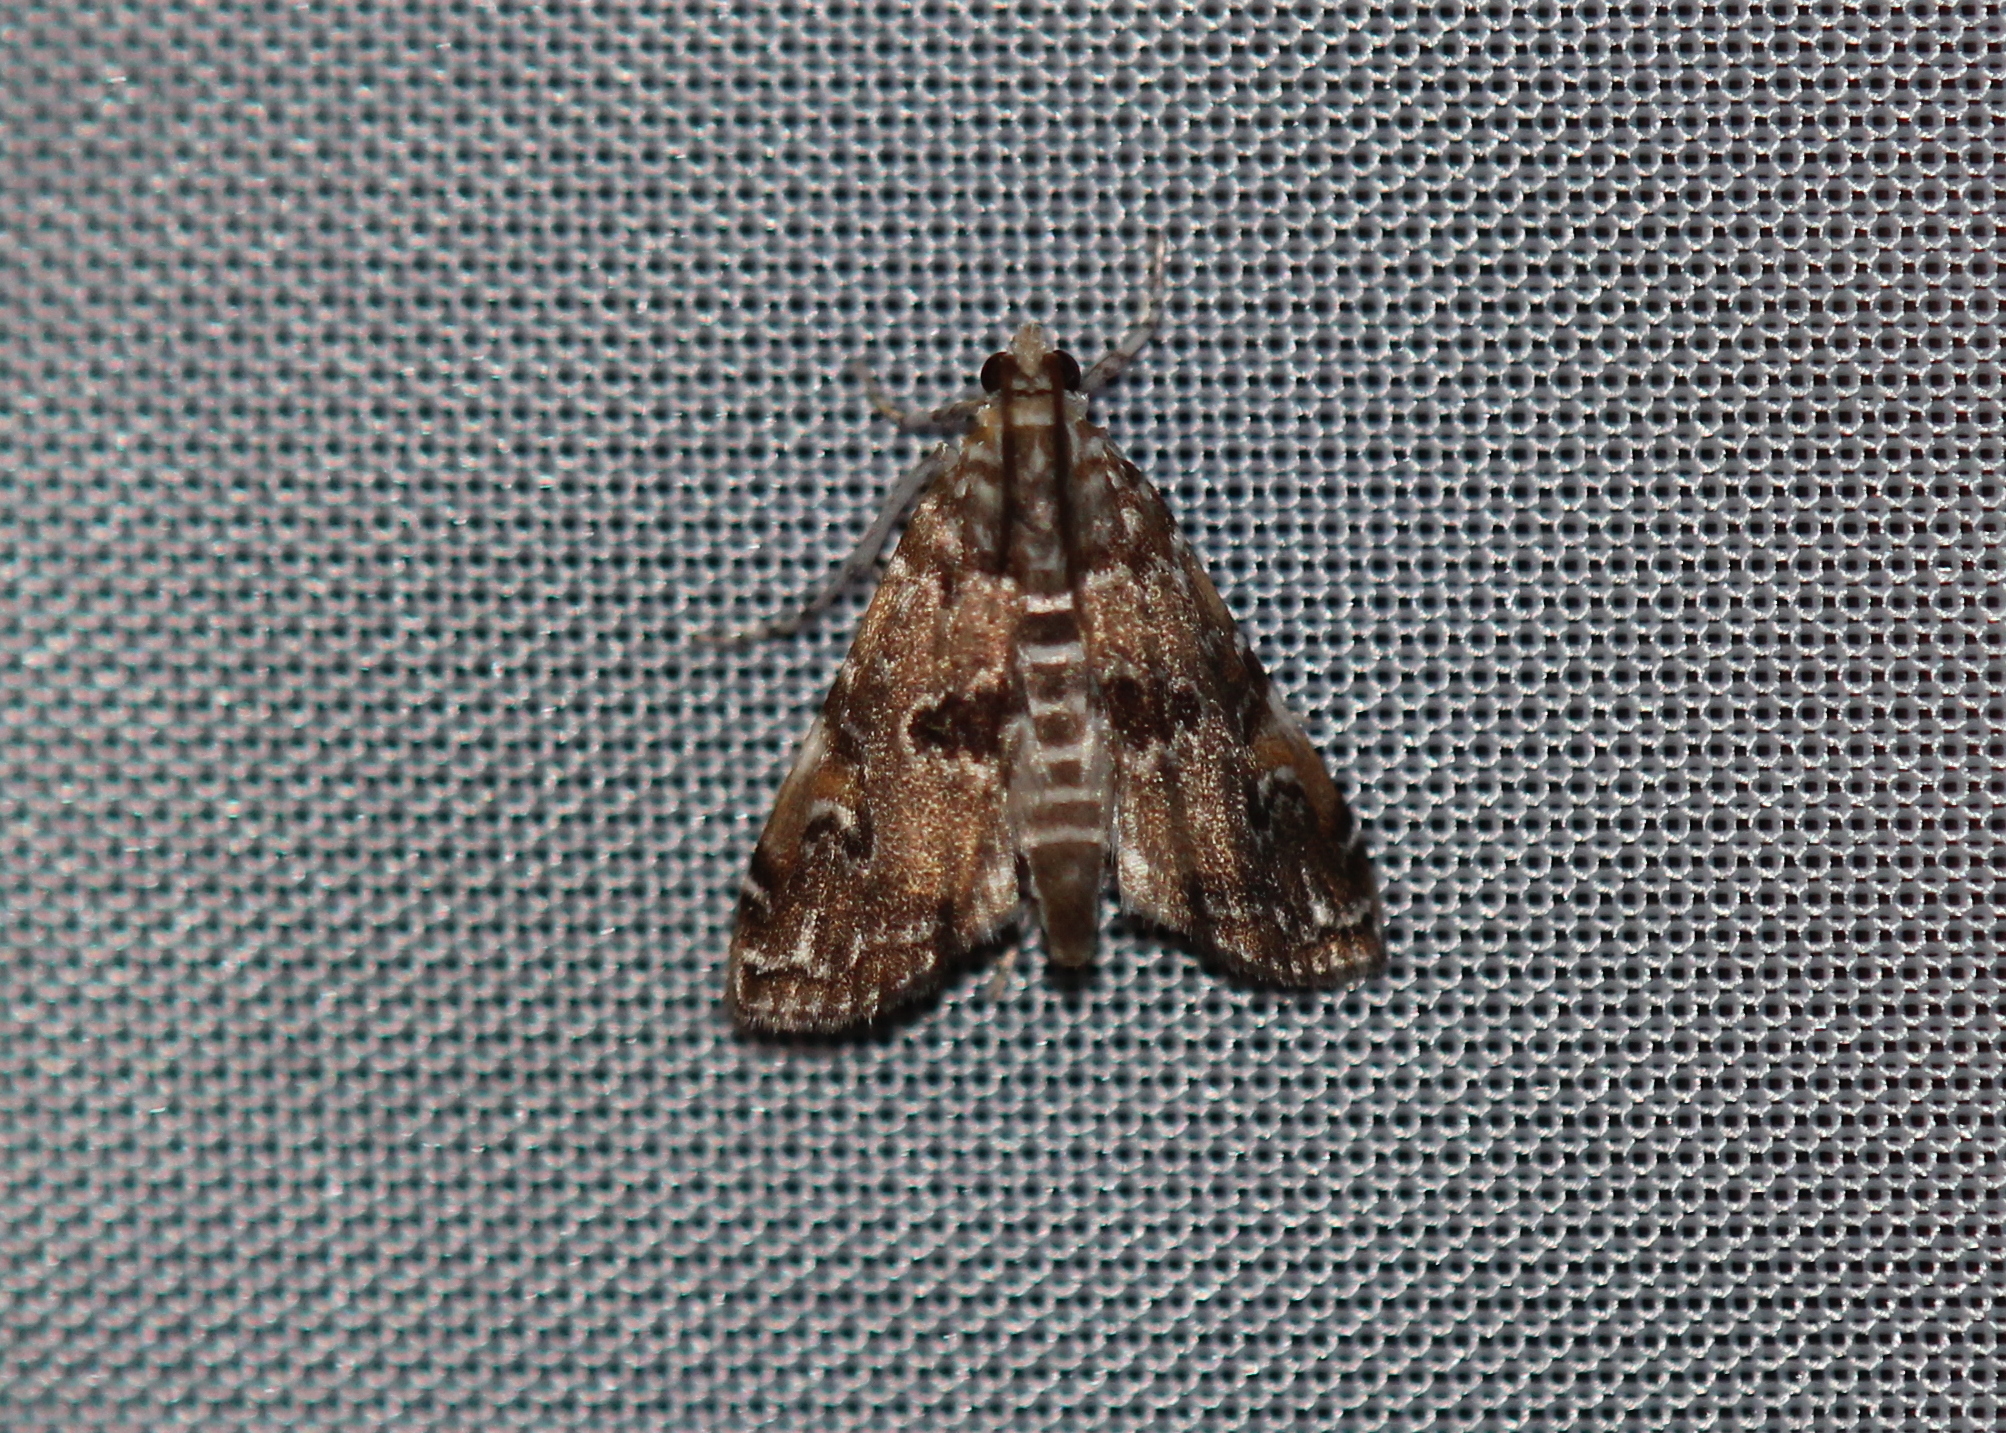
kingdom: Animalia
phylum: Arthropoda
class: Insecta
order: Lepidoptera
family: Crambidae
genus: Elophila
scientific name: Elophila gyralis
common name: Waterlily borer moth
